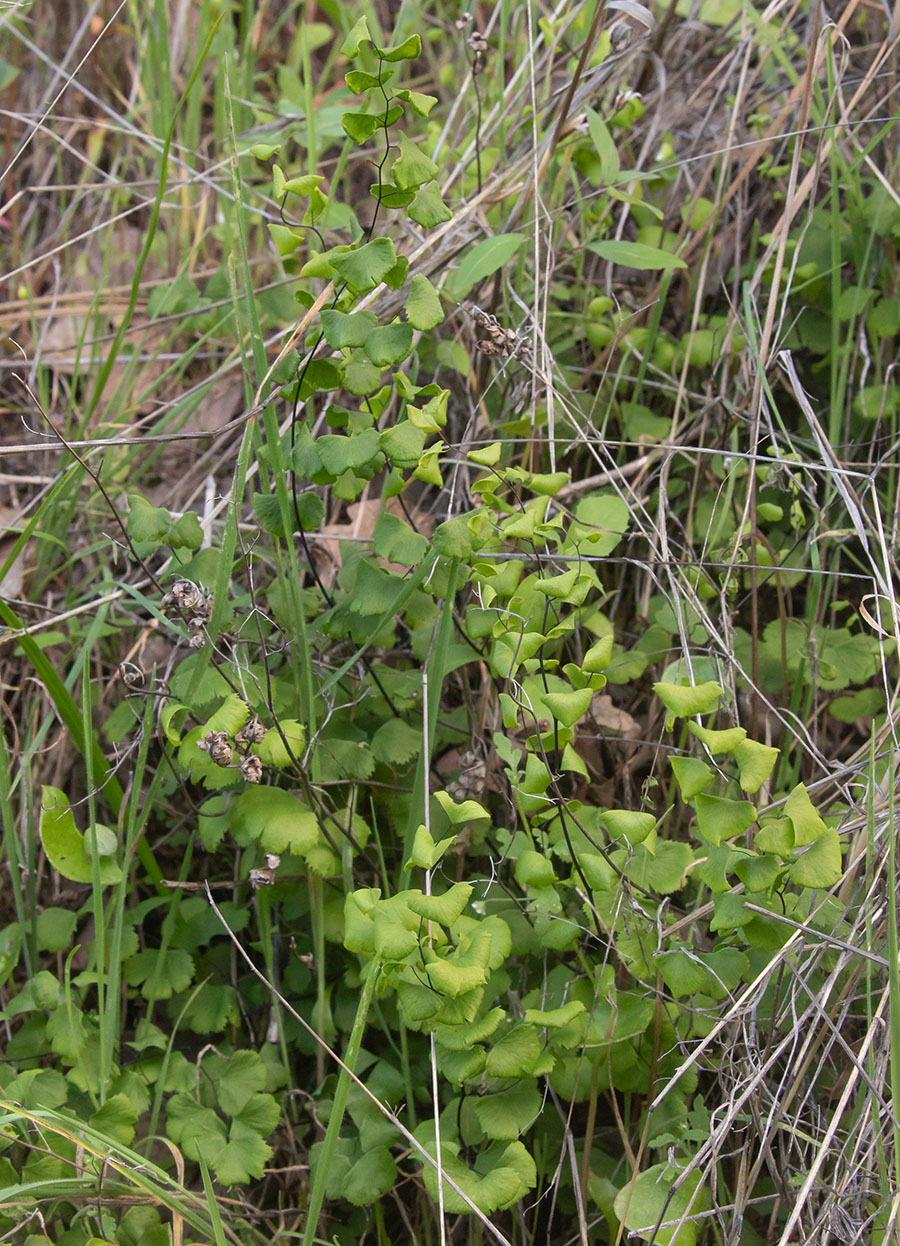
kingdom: Plantae
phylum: Tracheophyta
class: Polypodiopsida
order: Polypodiales
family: Pteridaceae
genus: Adiantum
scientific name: Adiantum jordanii
